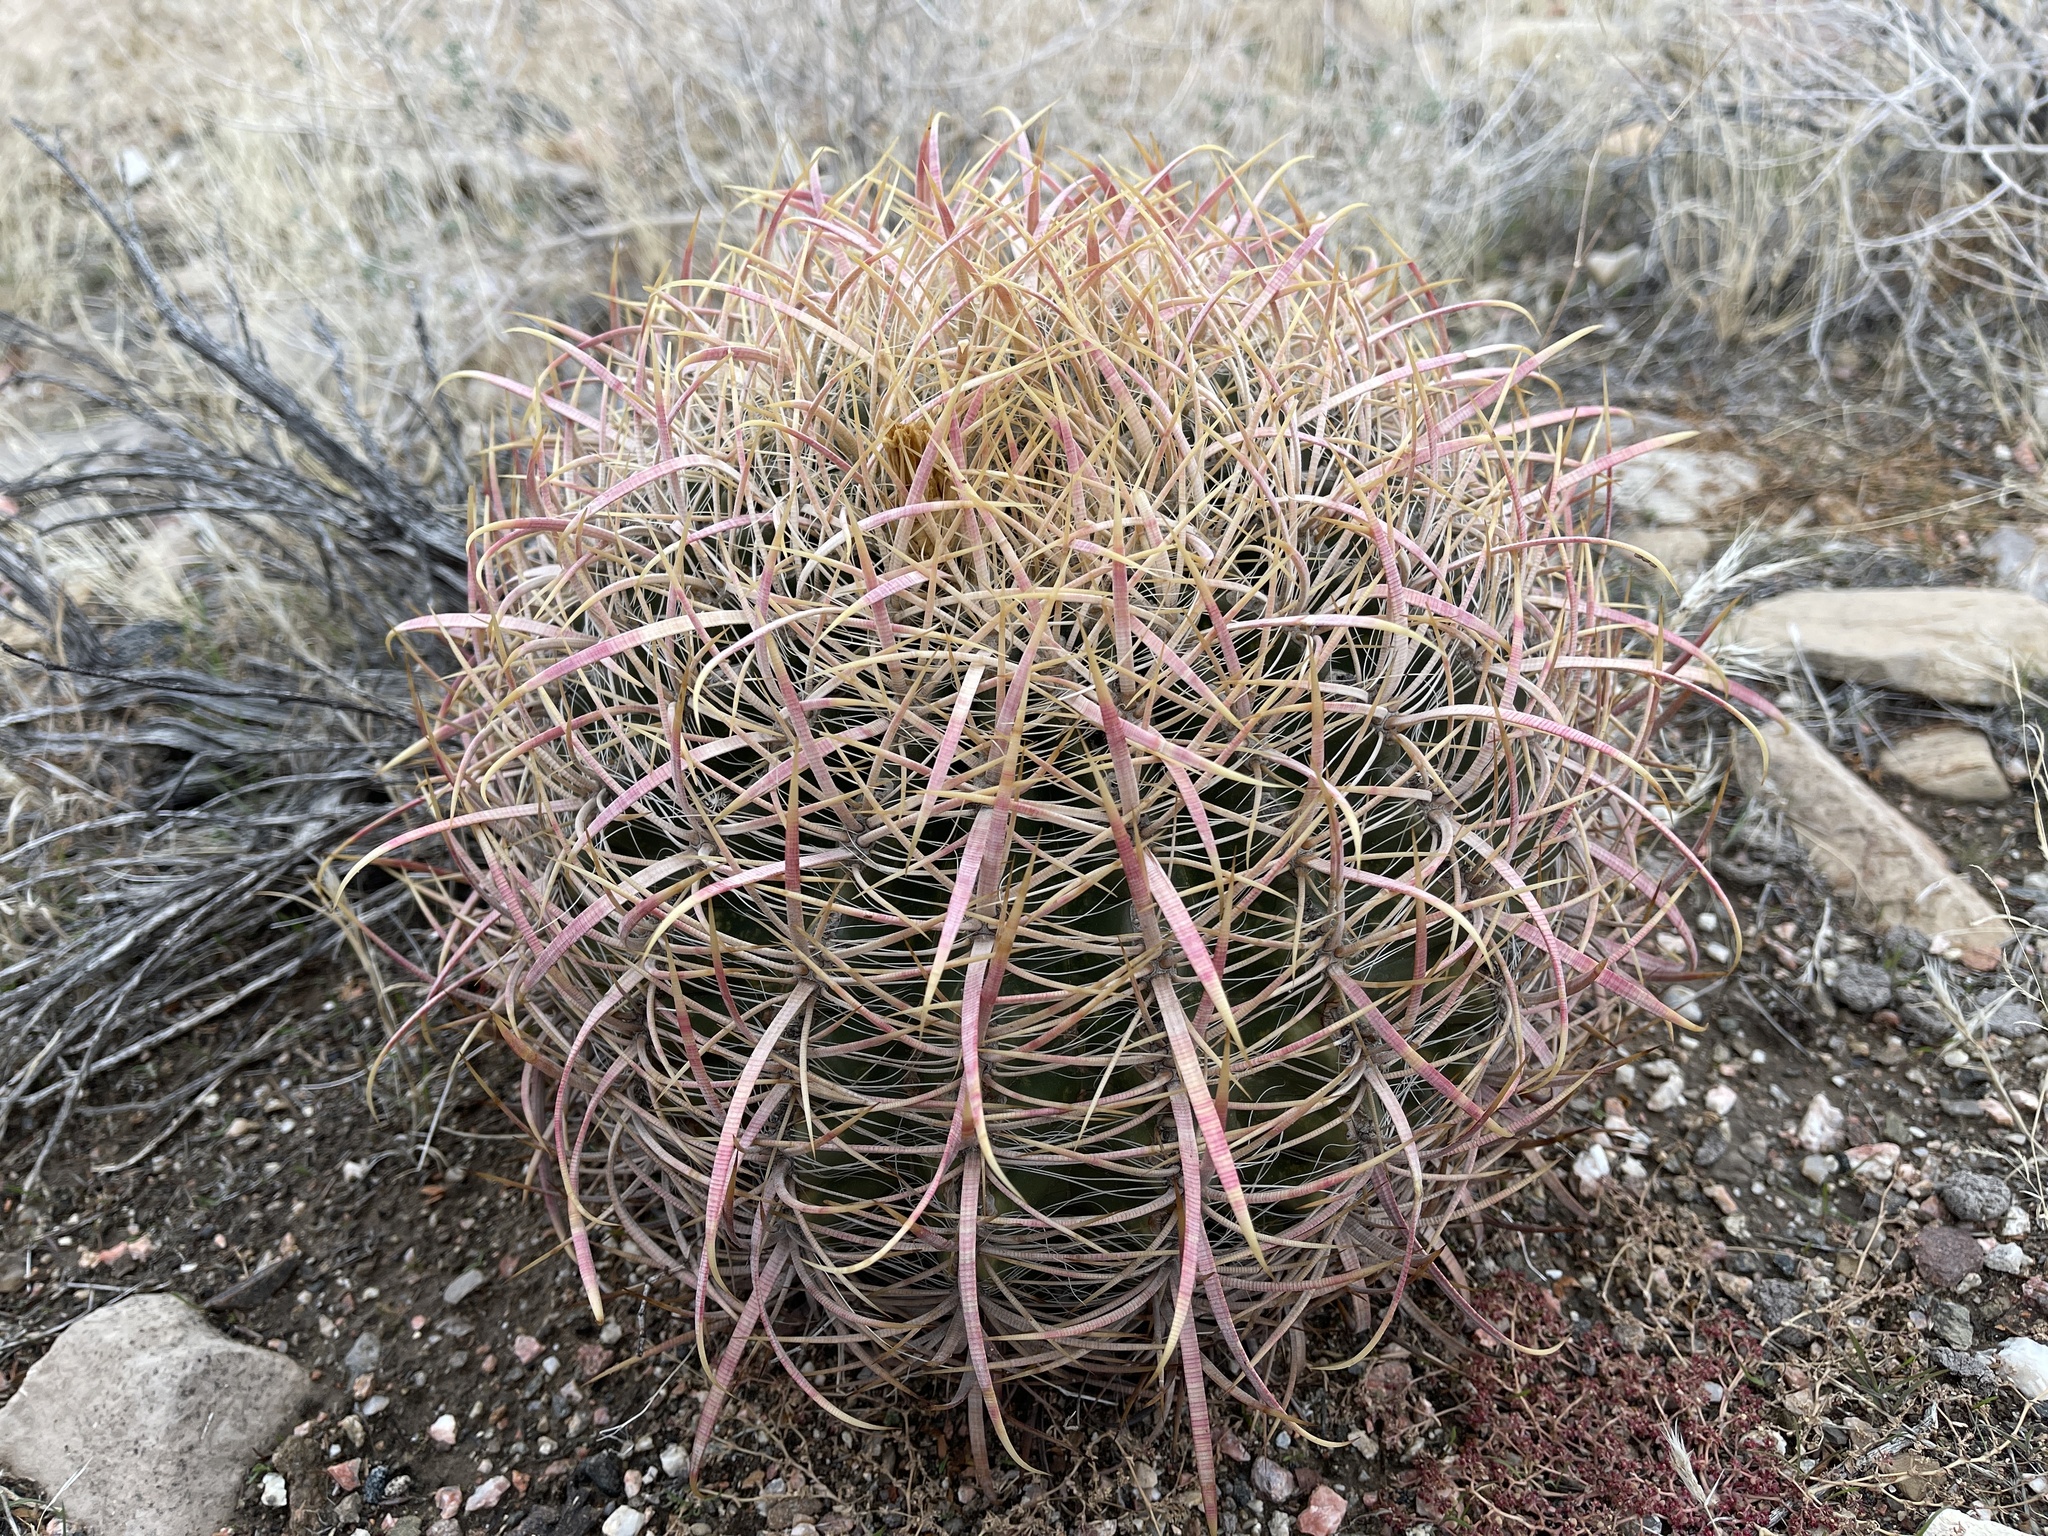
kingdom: Plantae
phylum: Tracheophyta
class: Magnoliopsida
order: Caryophyllales
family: Cactaceae
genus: Ferocactus
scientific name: Ferocactus cylindraceus
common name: California barrel cactus
